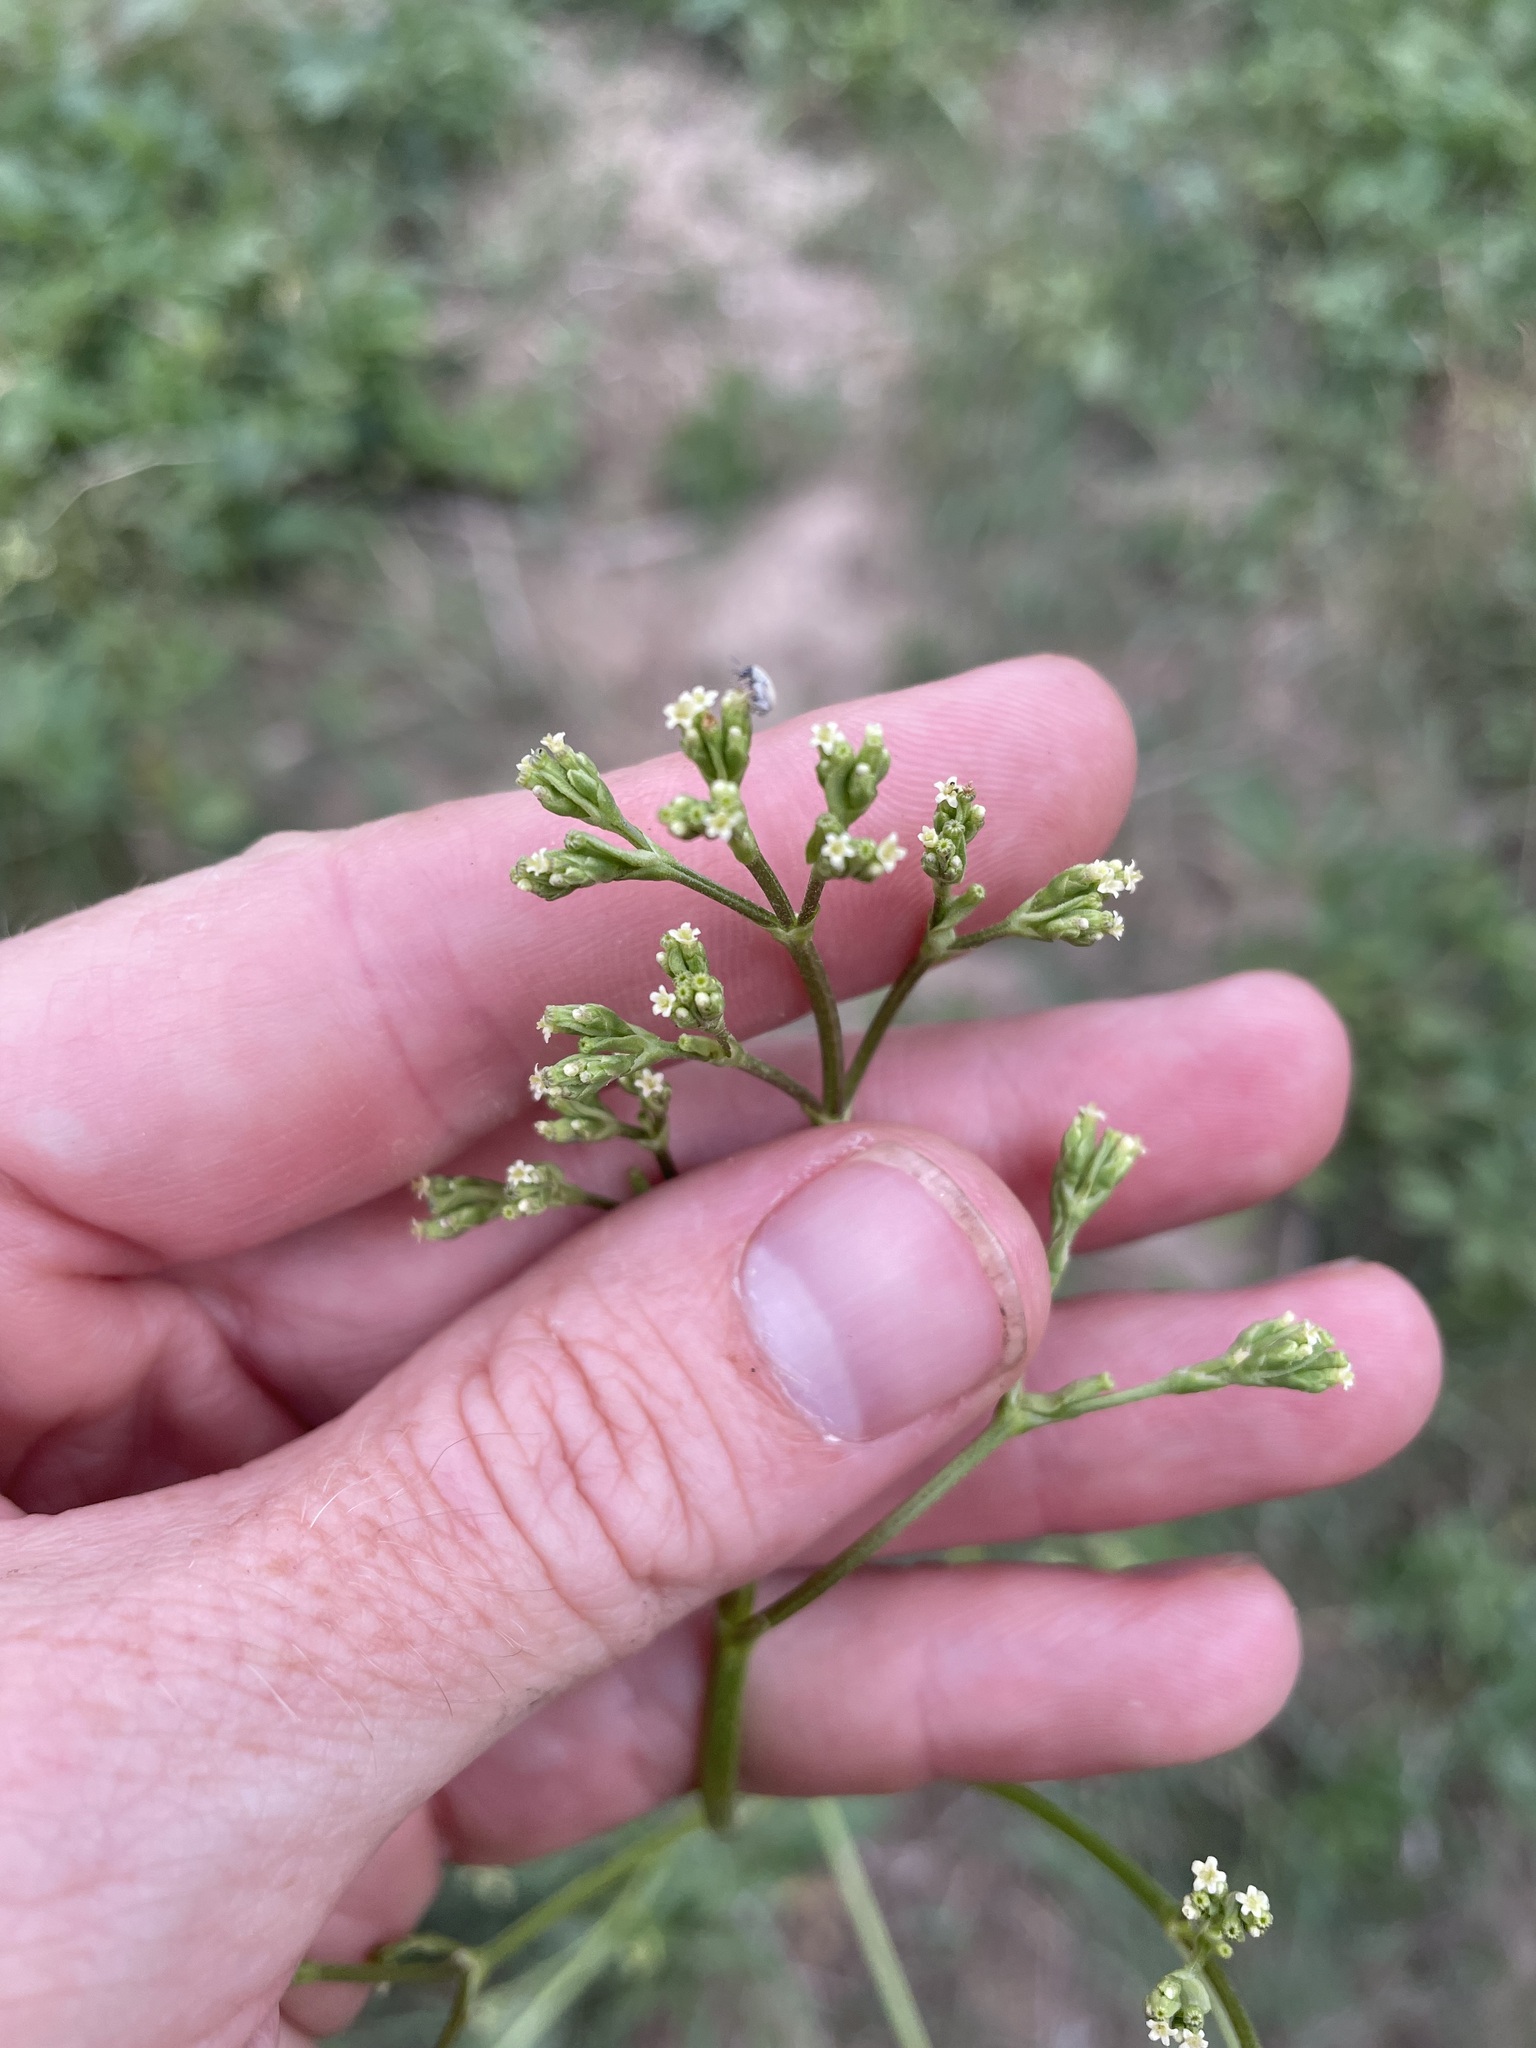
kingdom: Plantae
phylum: Tracheophyta
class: Magnoliopsida
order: Dipsacales
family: Caprifoliaceae
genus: Valeriana
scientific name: Valeriana edulis
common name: Taproot valerian
